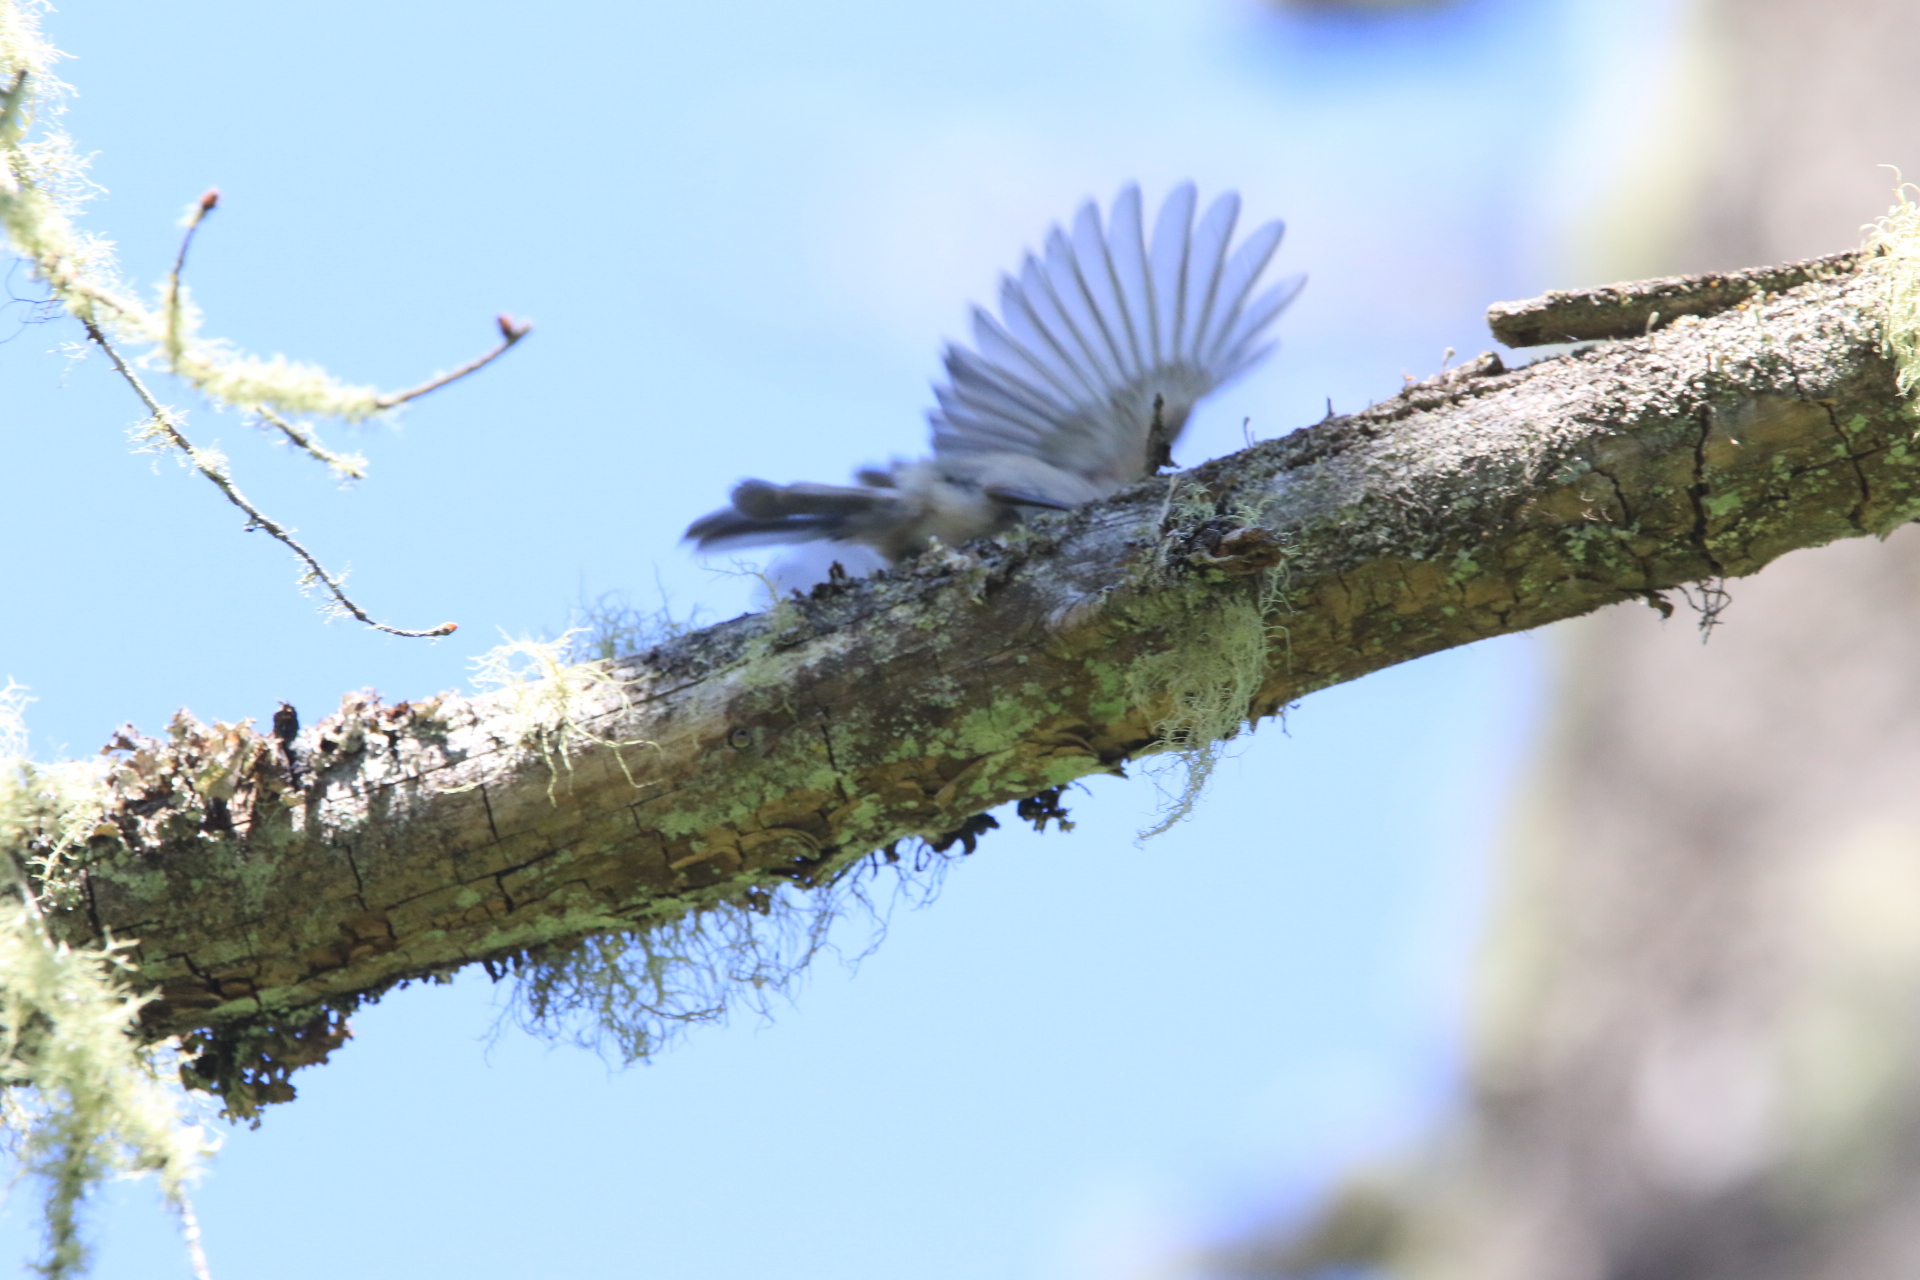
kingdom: Animalia
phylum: Chordata
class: Aves
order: Passeriformes
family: Aegithalidae
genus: Psaltriparus
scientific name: Psaltriparus minimus
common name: American bushtit
